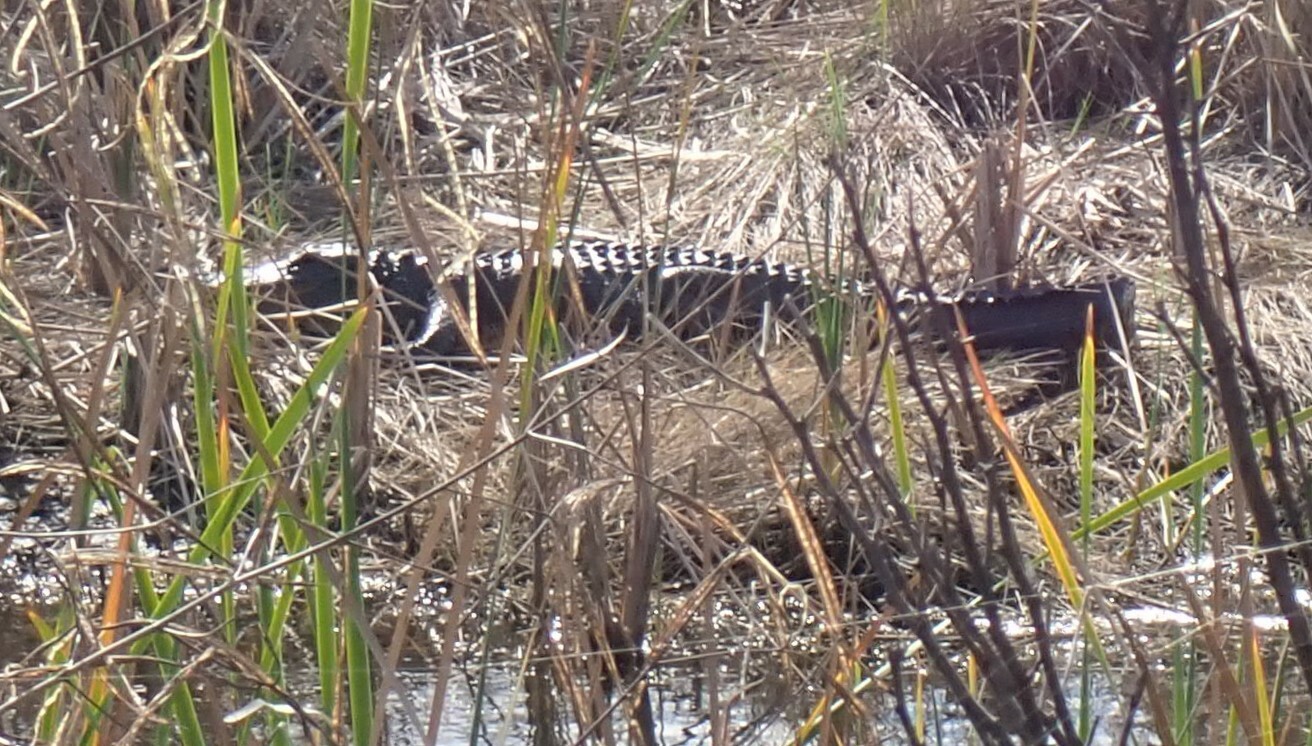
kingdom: Animalia
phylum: Chordata
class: Crocodylia
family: Alligatoridae
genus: Alligator
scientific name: Alligator mississippiensis
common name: American alligator
